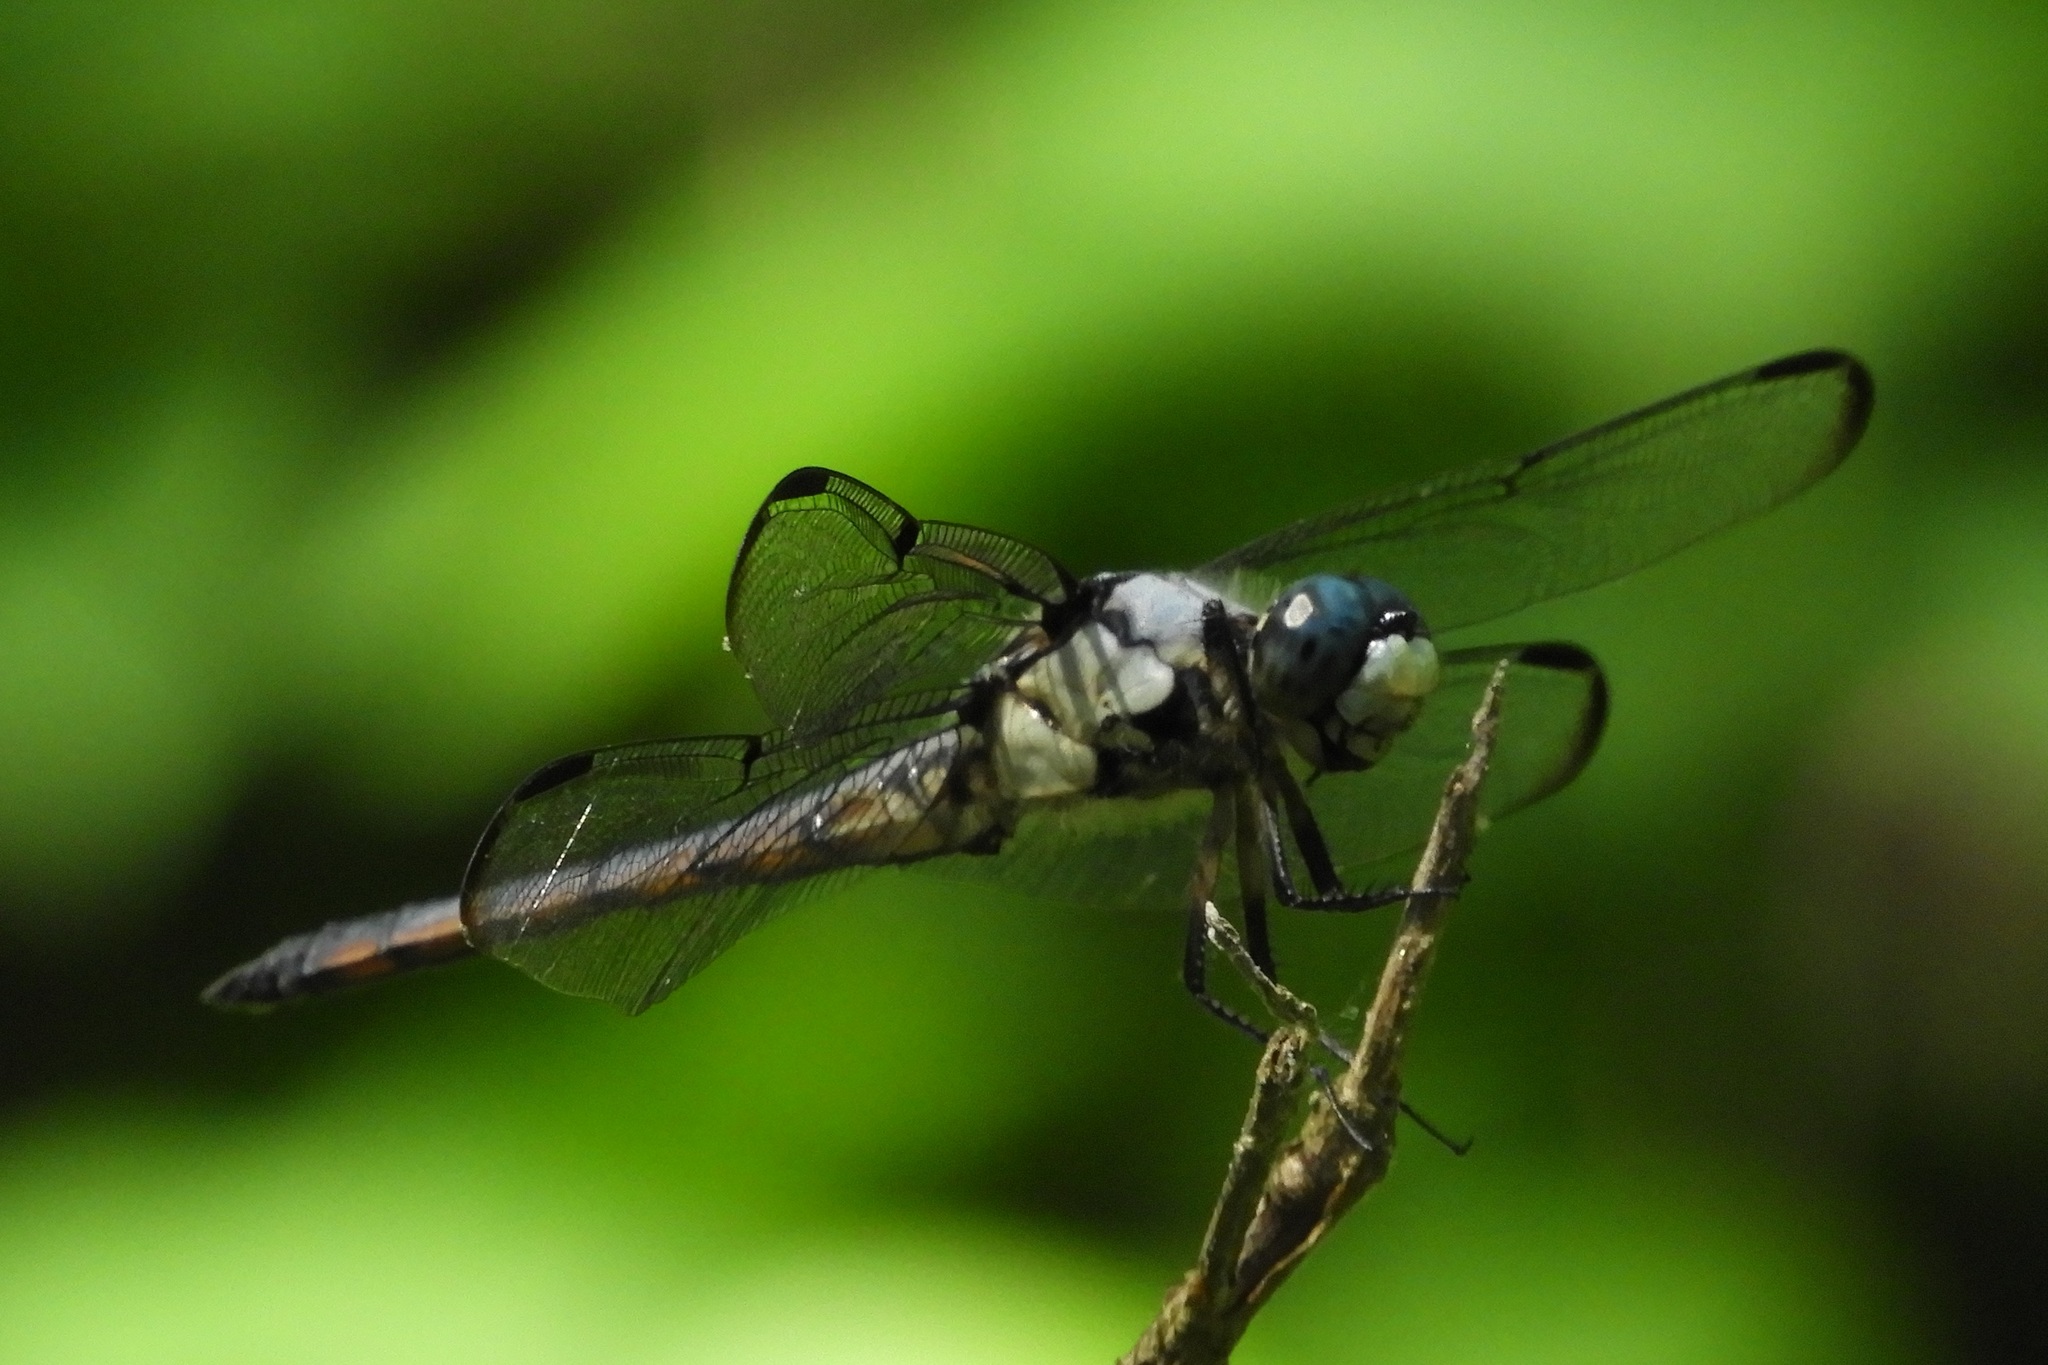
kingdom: Animalia
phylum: Arthropoda
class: Insecta
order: Odonata
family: Libellulidae
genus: Libellula
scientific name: Libellula vibrans
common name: Great blue skimmer
